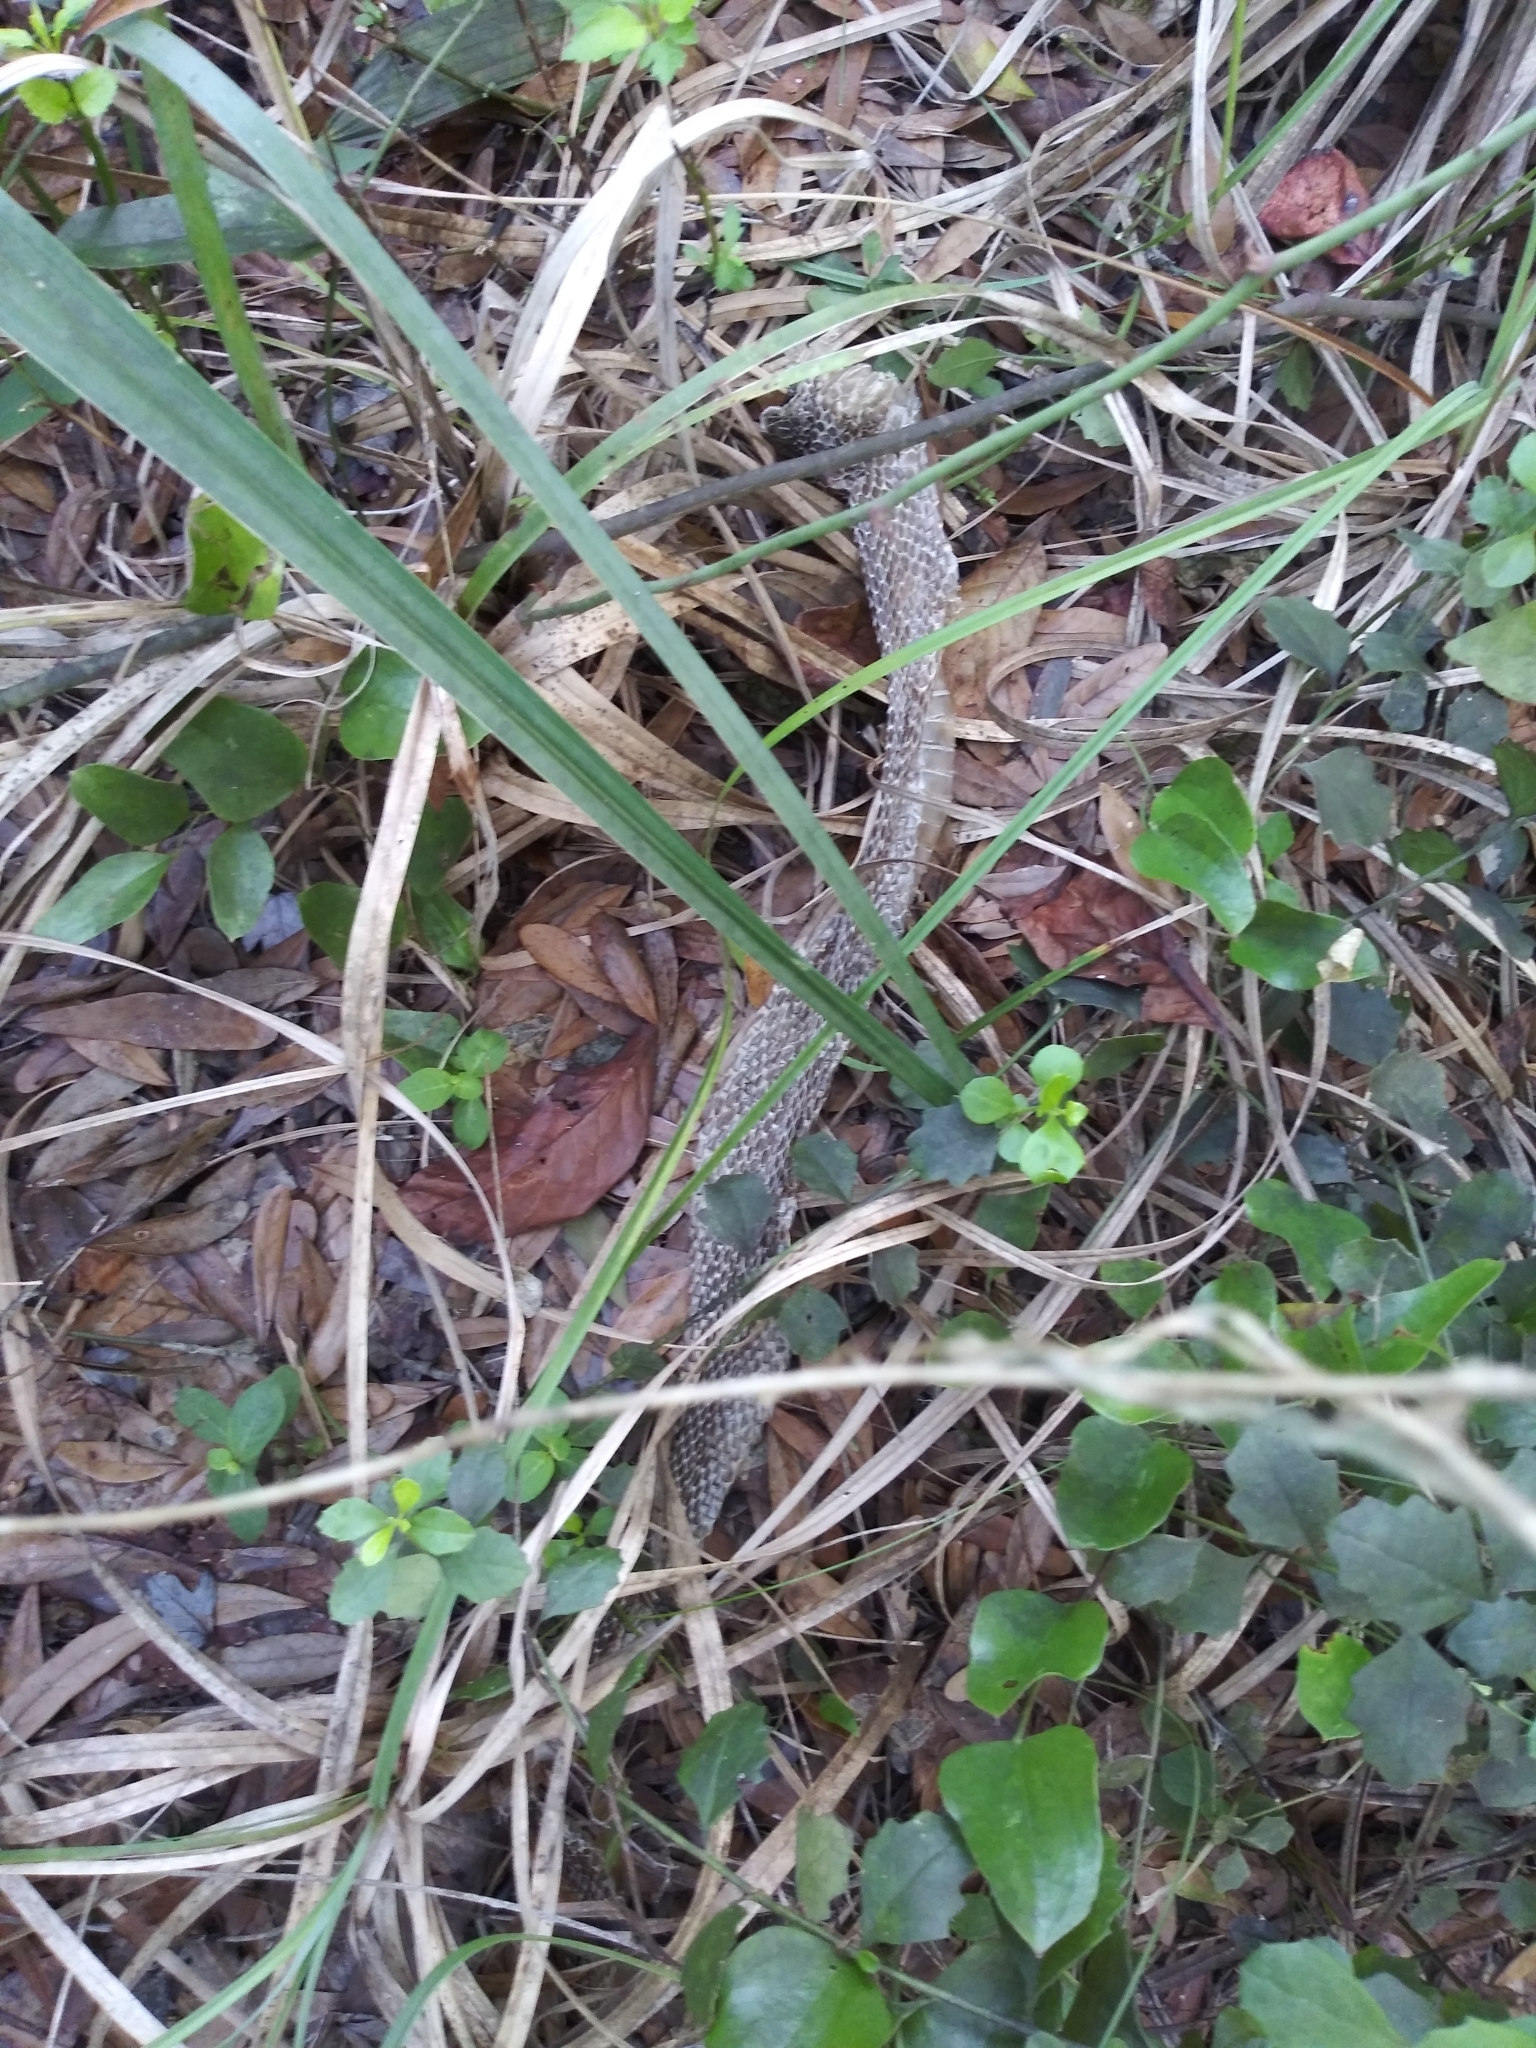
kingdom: Animalia
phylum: Chordata
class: Squamata
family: Viperidae
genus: Agkistrodon
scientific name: Agkistrodon conanti
